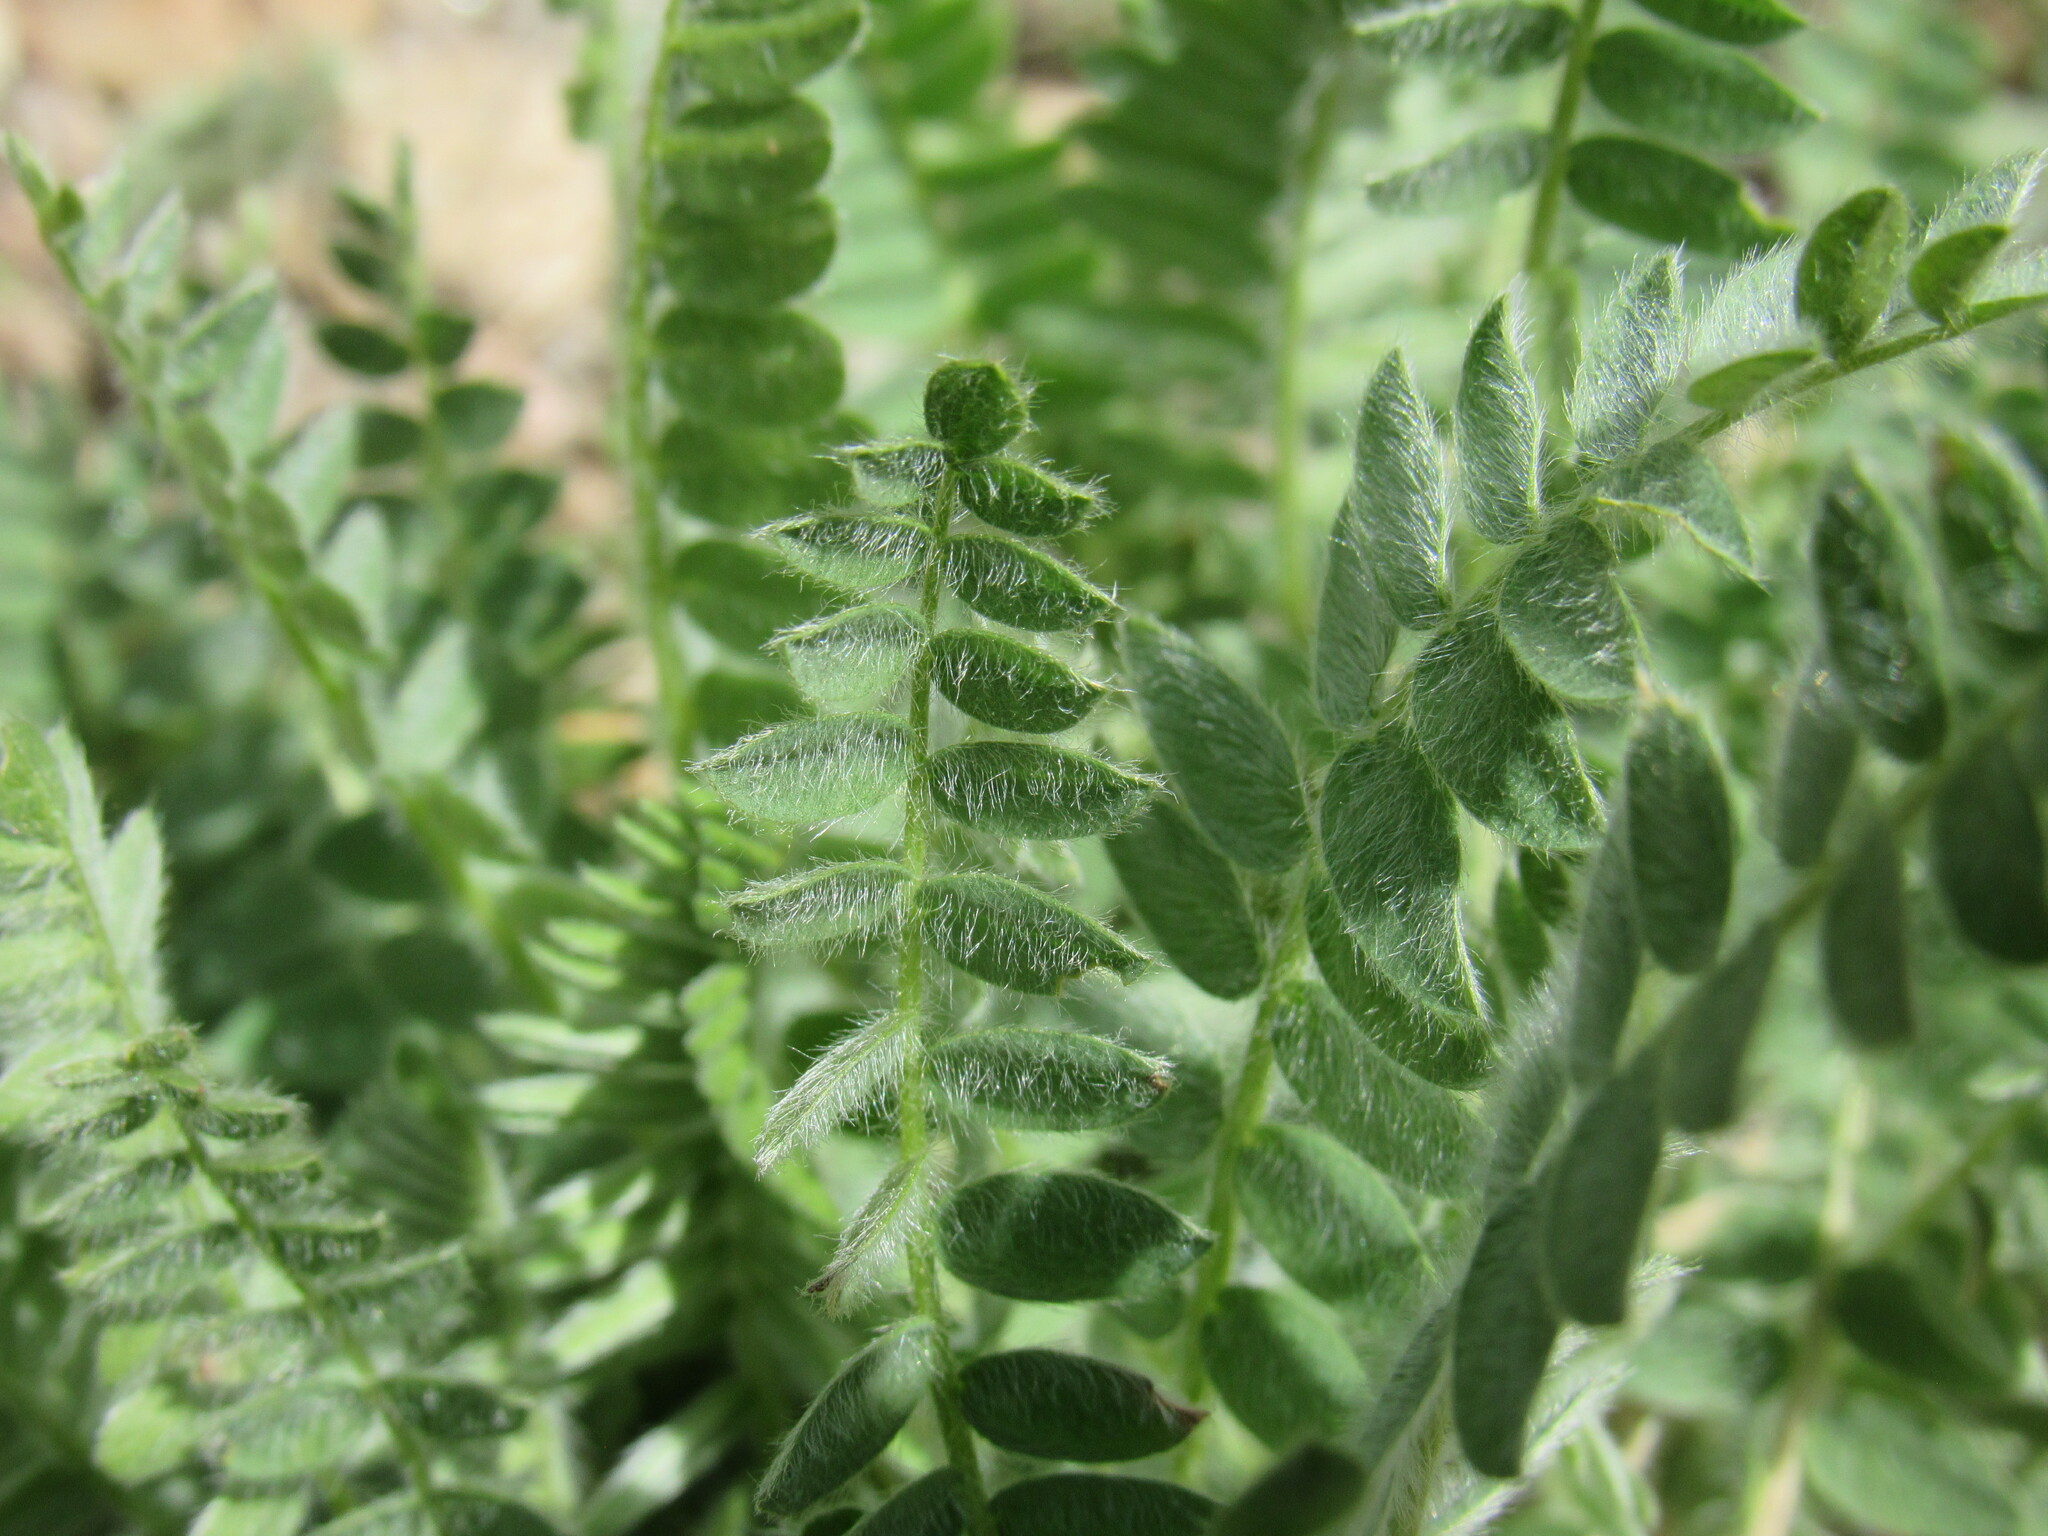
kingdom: Plantae
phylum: Tracheophyta
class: Magnoliopsida
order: Fabales
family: Fabaceae
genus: Oxytropis
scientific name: Oxytropis deflexa
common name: Stemmed oxytrope
